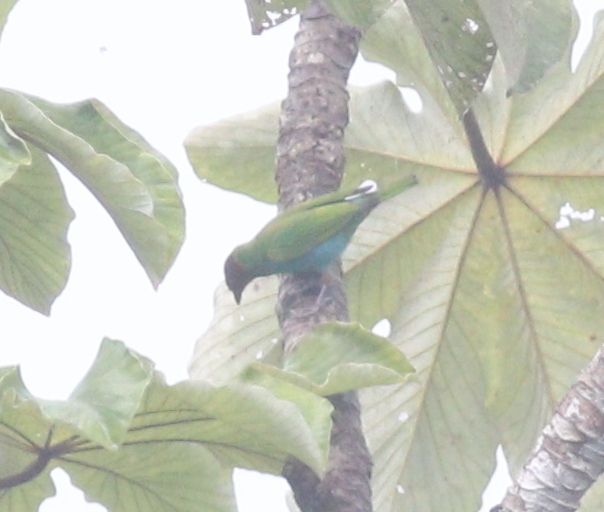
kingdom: Animalia
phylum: Chordata
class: Aves
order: Passeriformes
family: Thraupidae
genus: Tangara
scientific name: Tangara gyrola
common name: Bay-headed tanager
